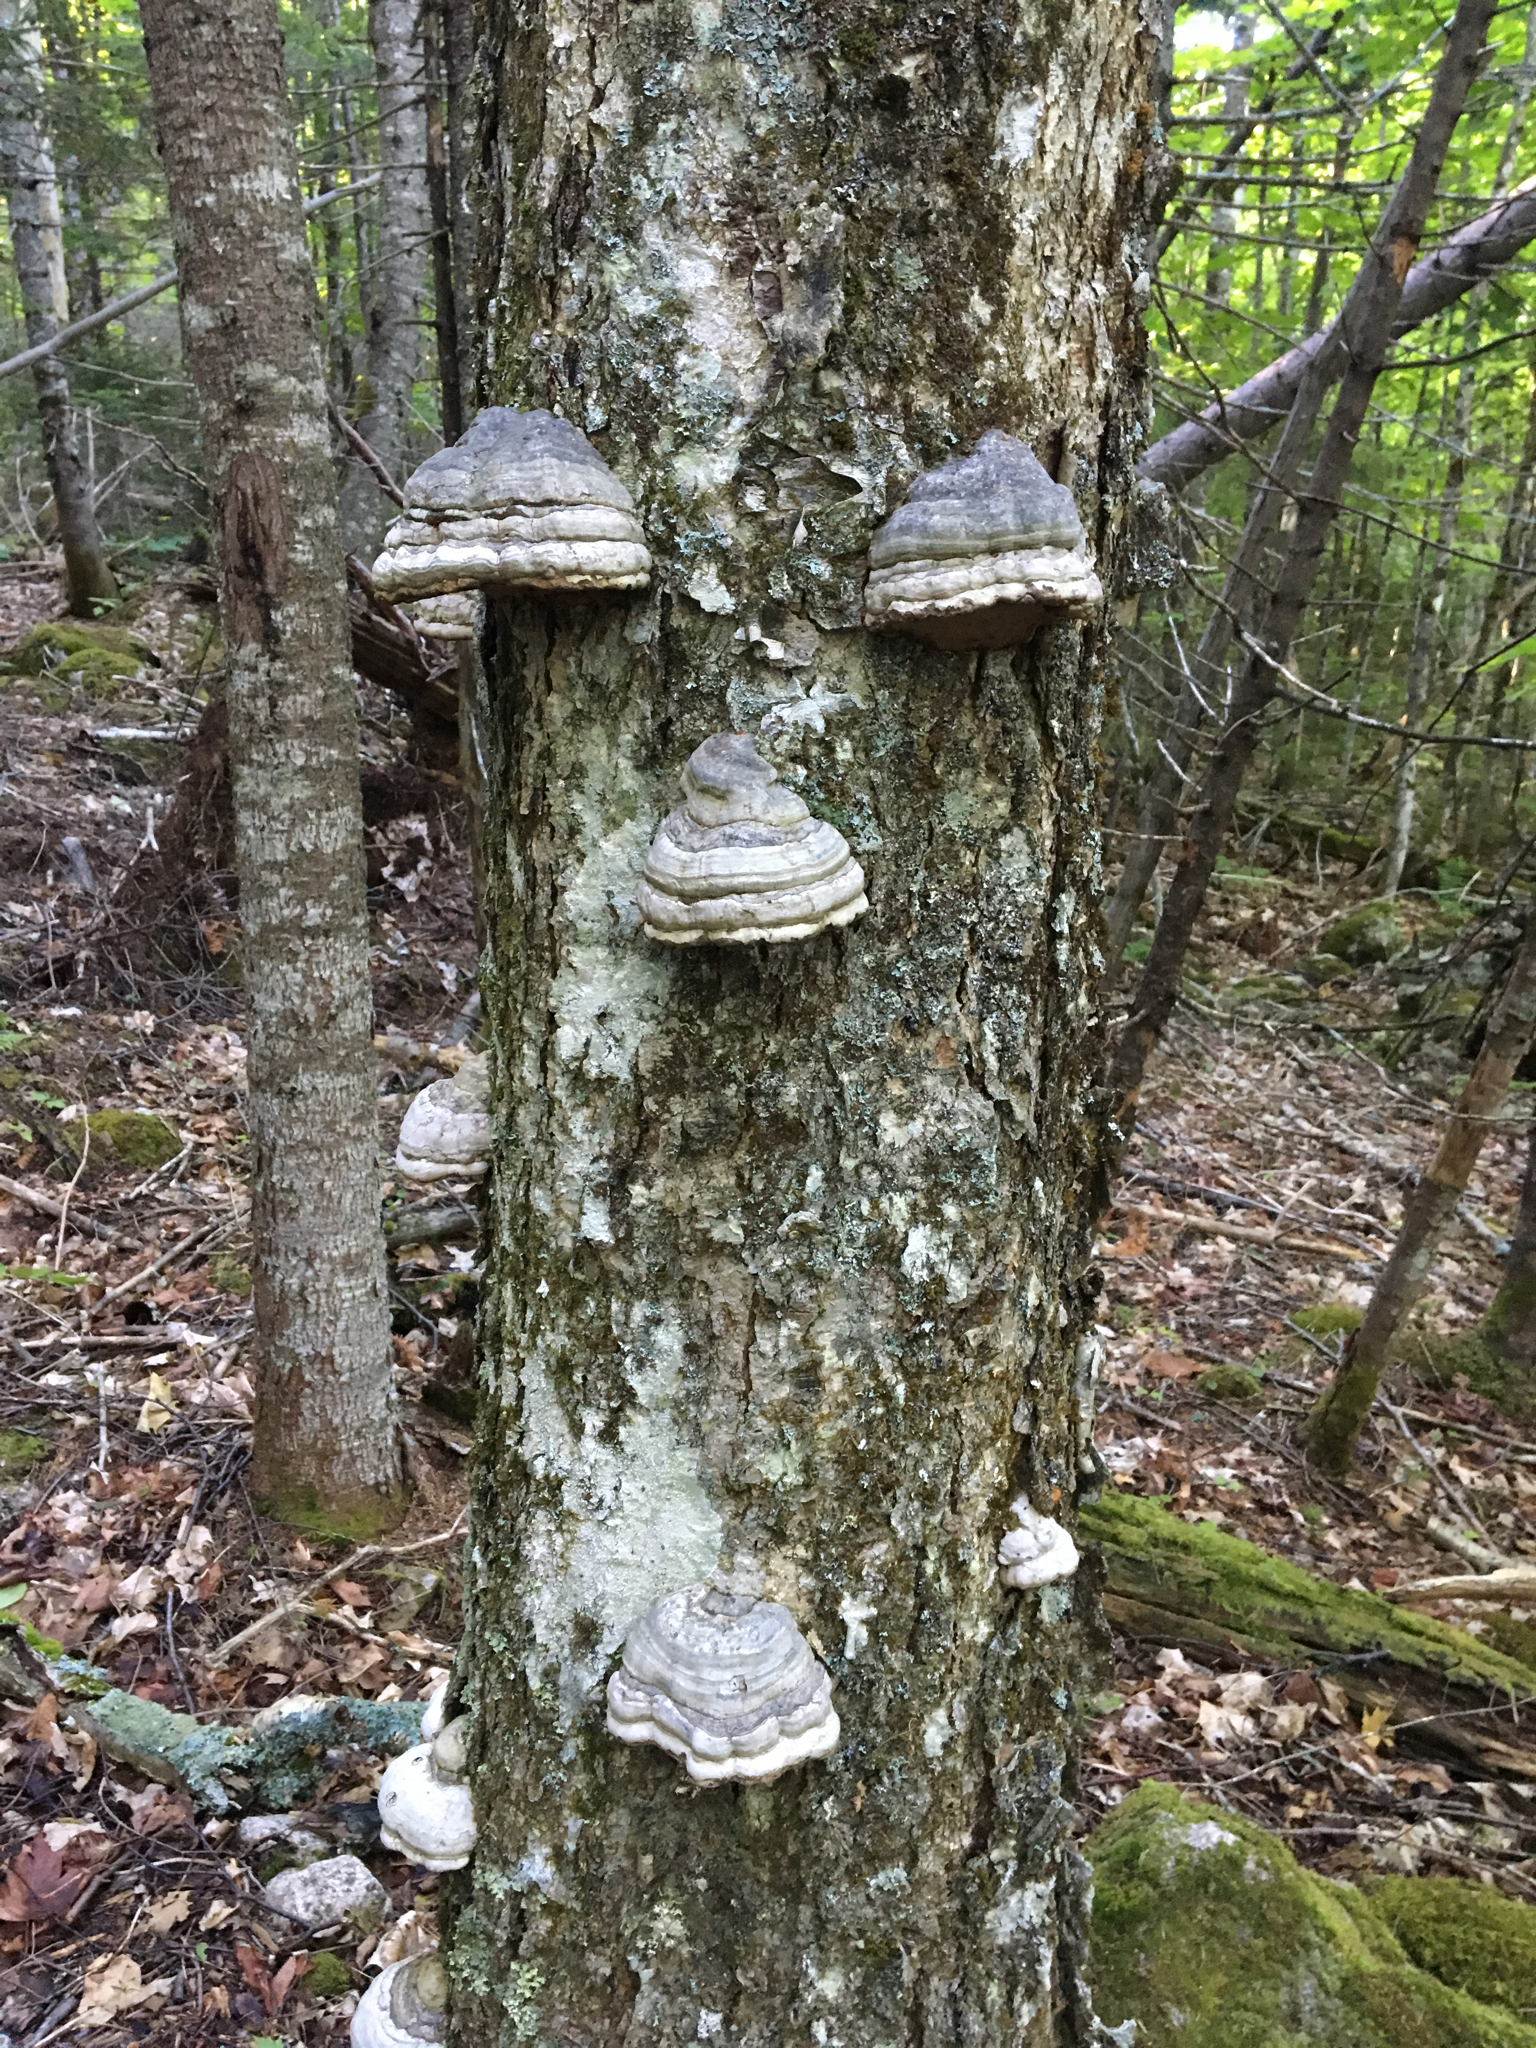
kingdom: Fungi
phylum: Basidiomycota
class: Agaricomycetes
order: Polyporales
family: Polyporaceae
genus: Fomes
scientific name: Fomes fomentarius
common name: Hoof fungus
